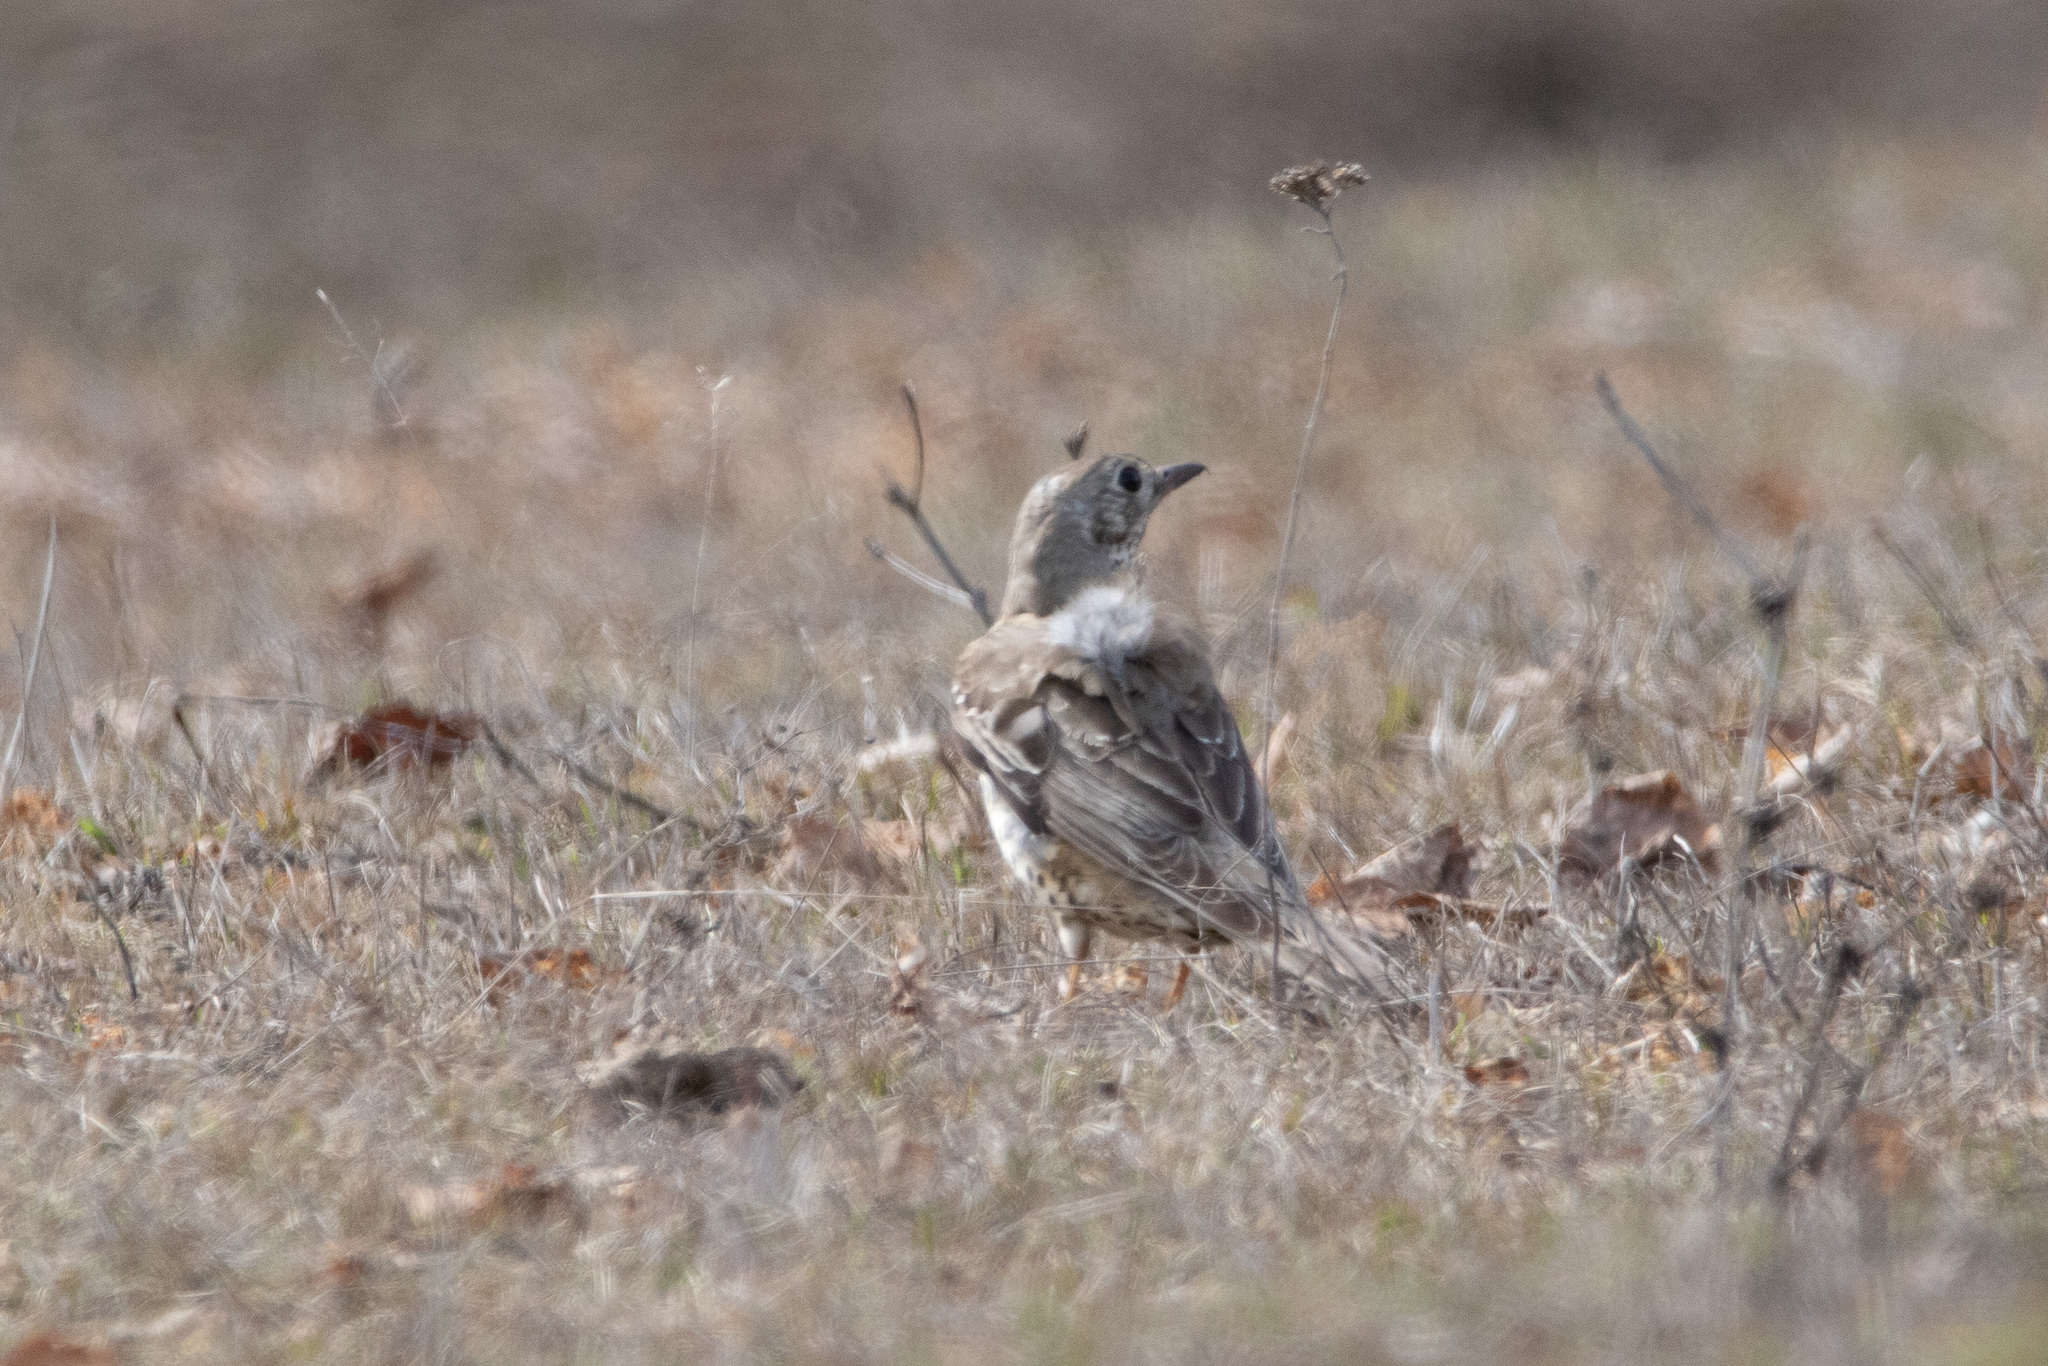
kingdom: Animalia
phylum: Chordata
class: Aves
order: Passeriformes
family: Turdidae
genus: Turdus
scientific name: Turdus viscivorus
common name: Mistle thrush
